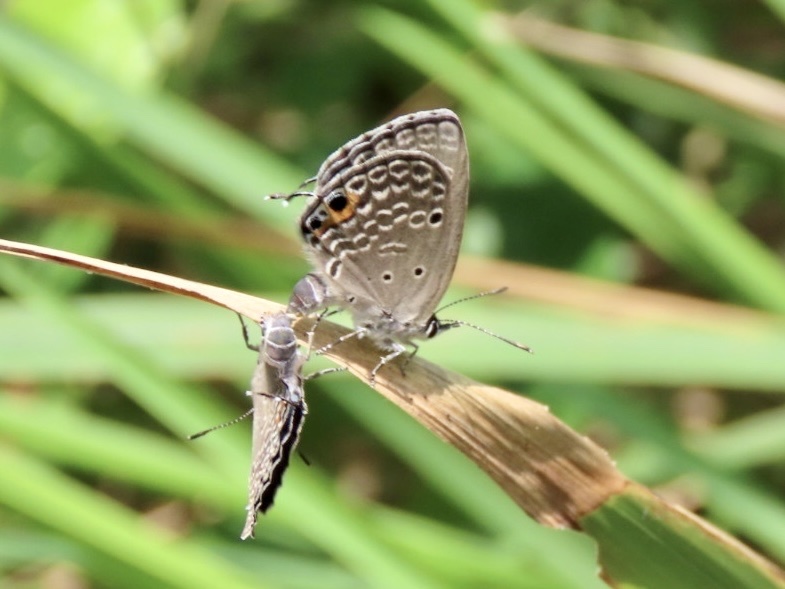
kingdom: Animalia
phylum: Arthropoda
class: Insecta
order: Lepidoptera
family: Lycaenidae
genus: Luthrodes
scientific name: Luthrodes pandava
